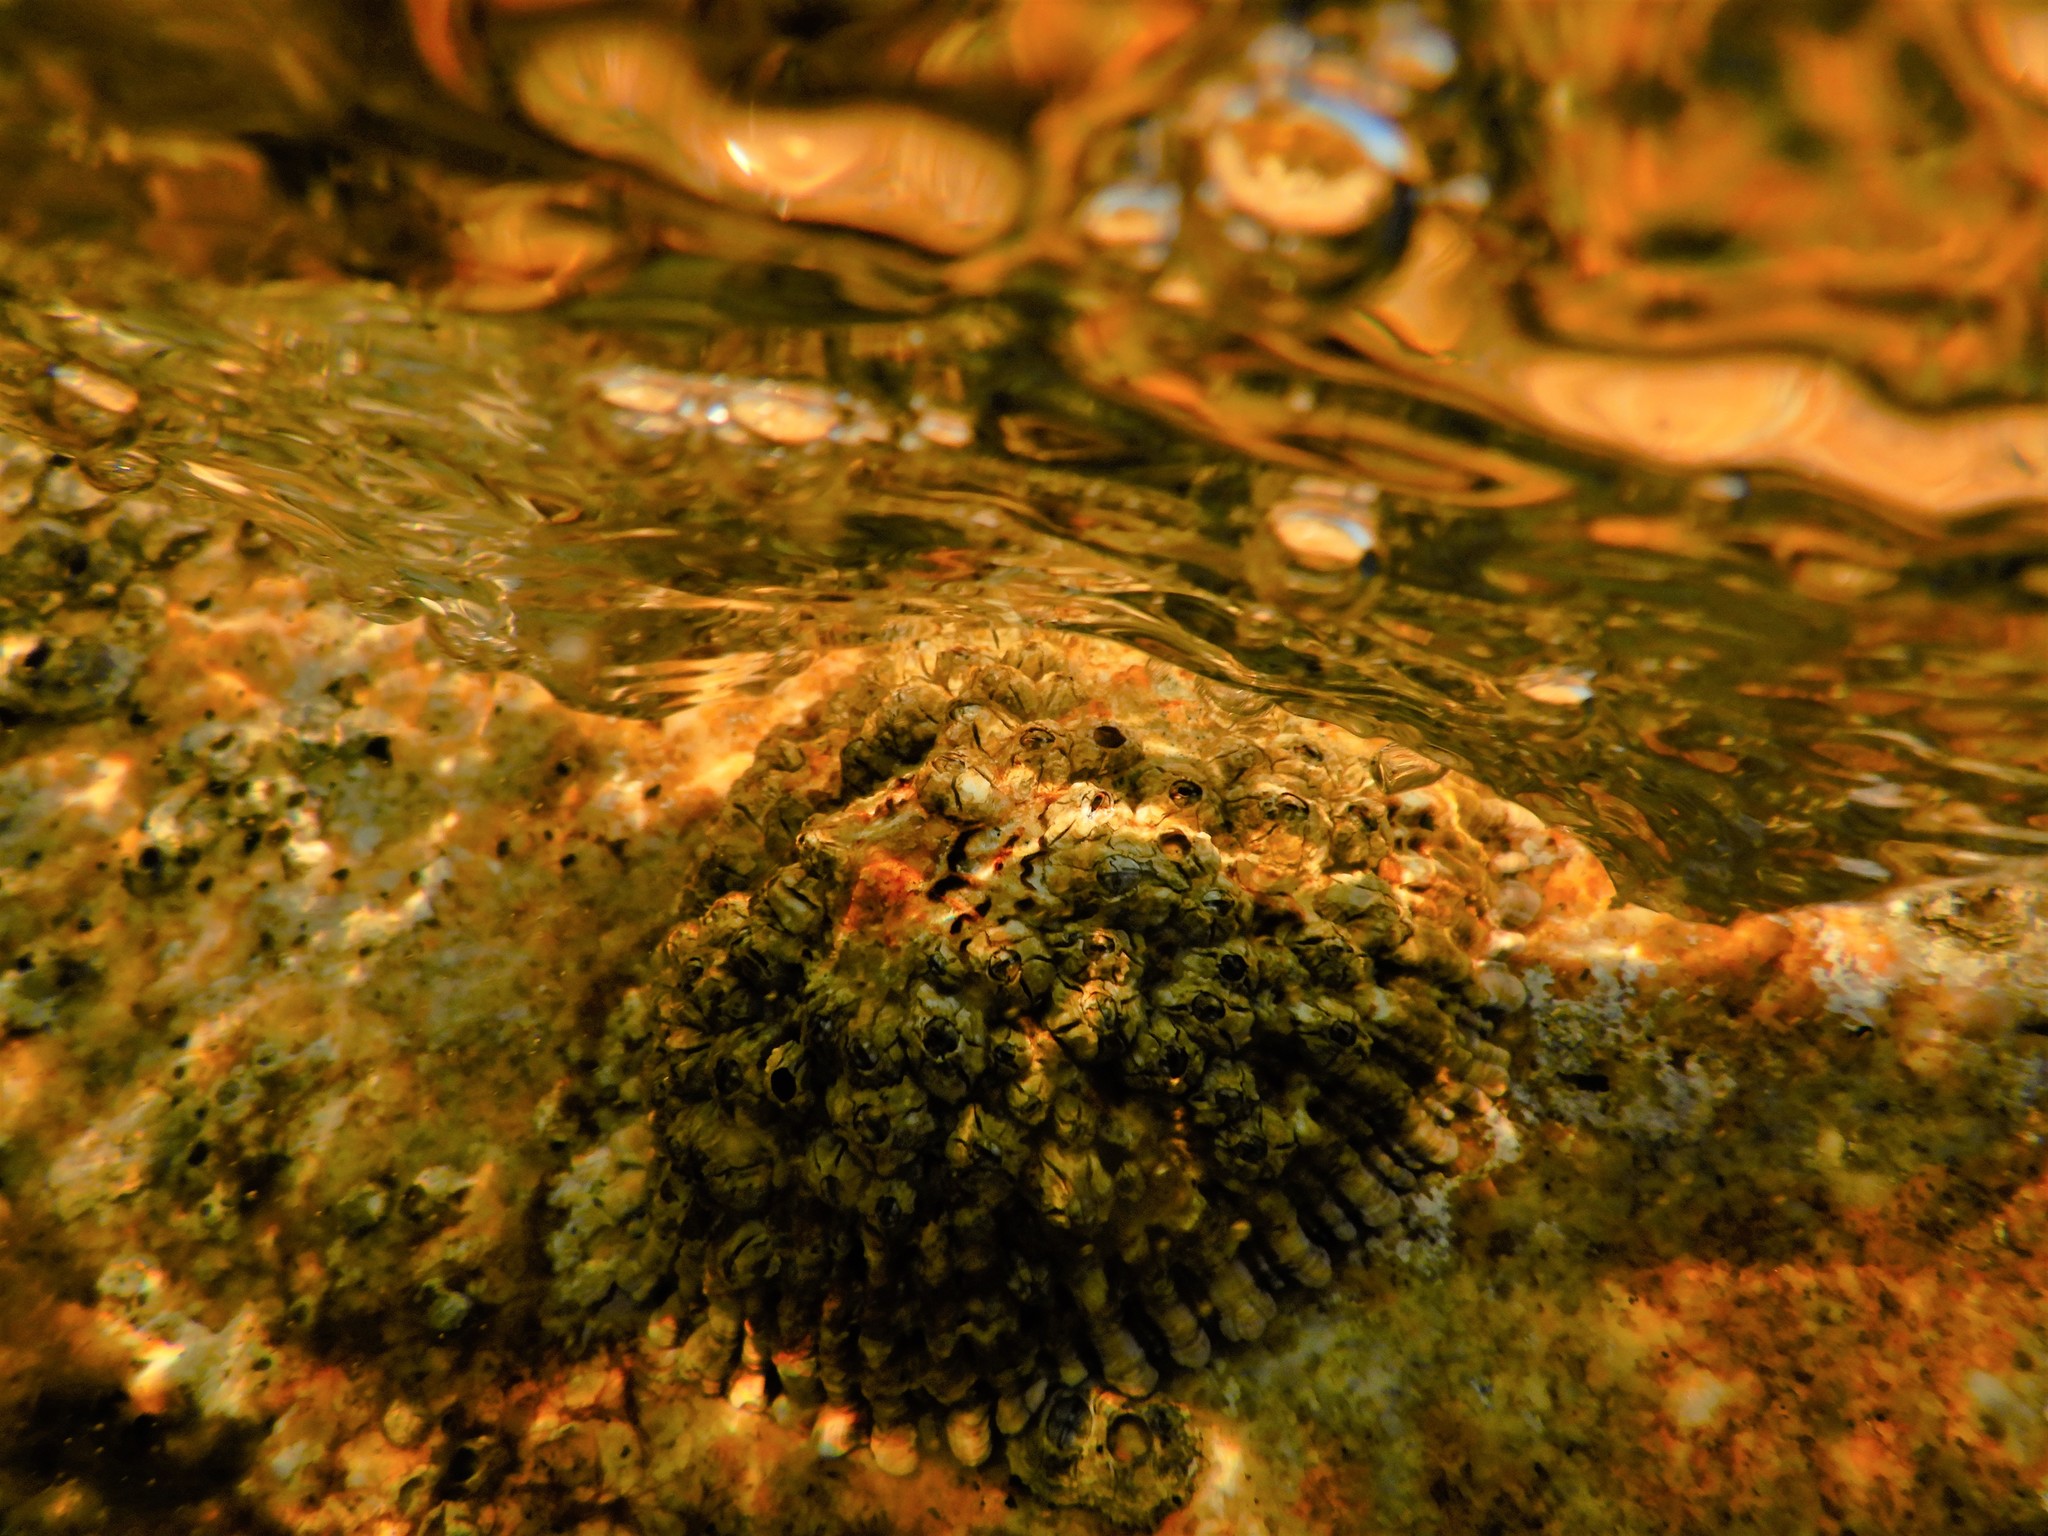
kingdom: Animalia
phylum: Mollusca
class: Gastropoda
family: Patellidae
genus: Patella
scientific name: Patella ferruginea
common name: Ribbed mediterranean limpet
